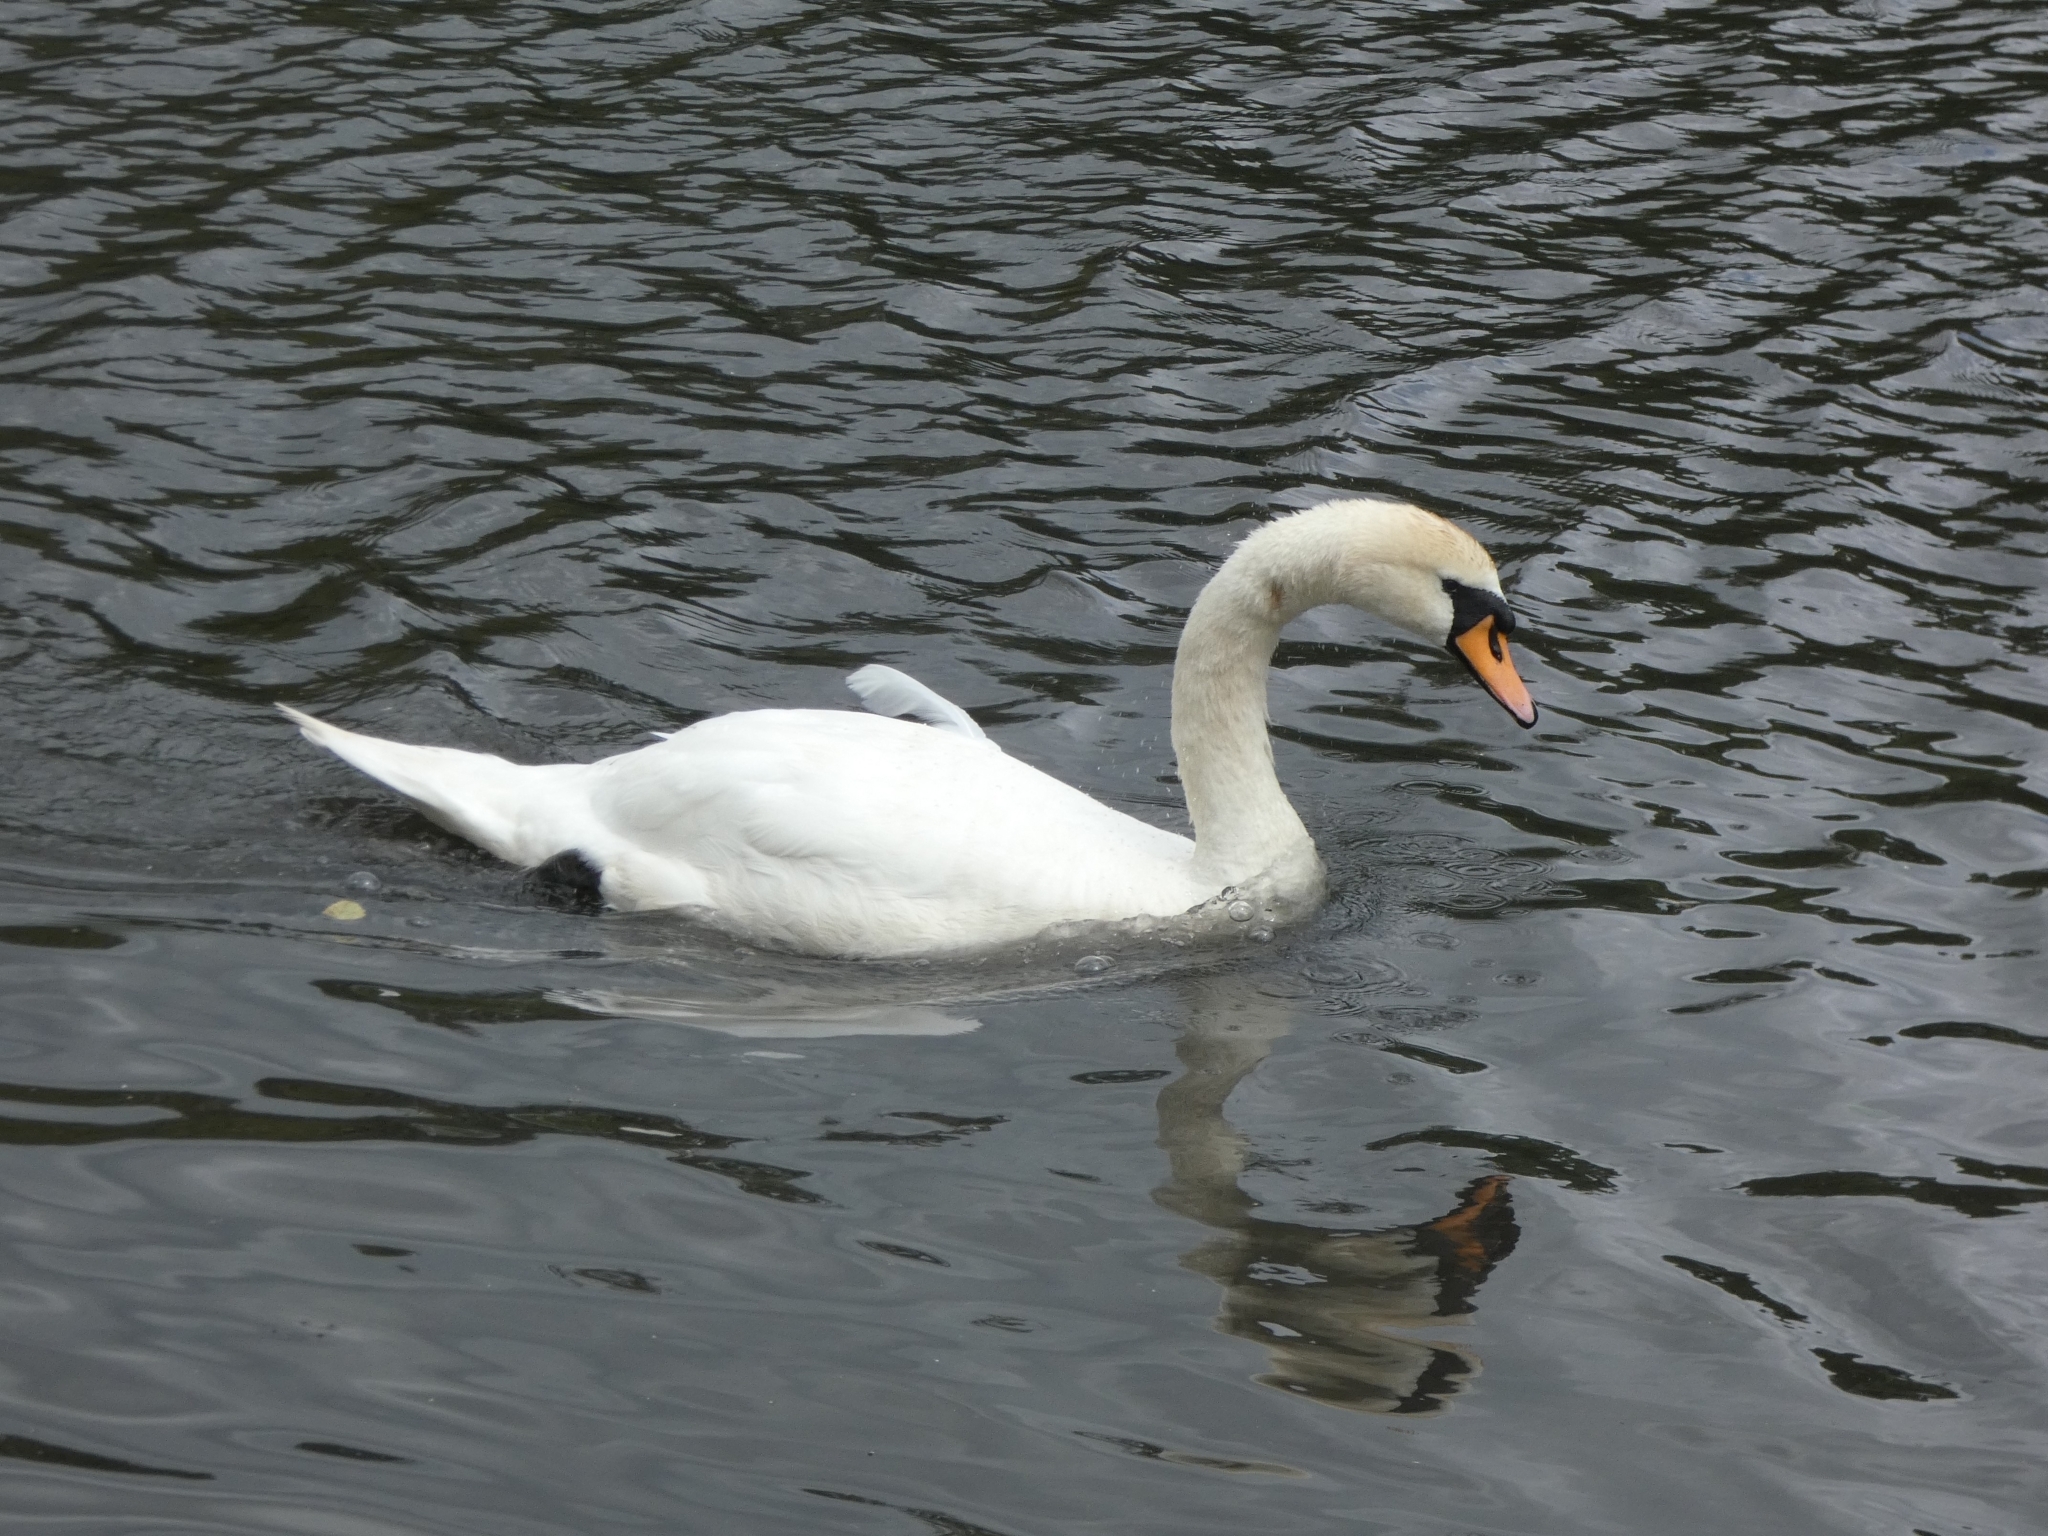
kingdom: Animalia
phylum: Chordata
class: Aves
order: Anseriformes
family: Anatidae
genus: Cygnus
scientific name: Cygnus olor
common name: Mute swan
